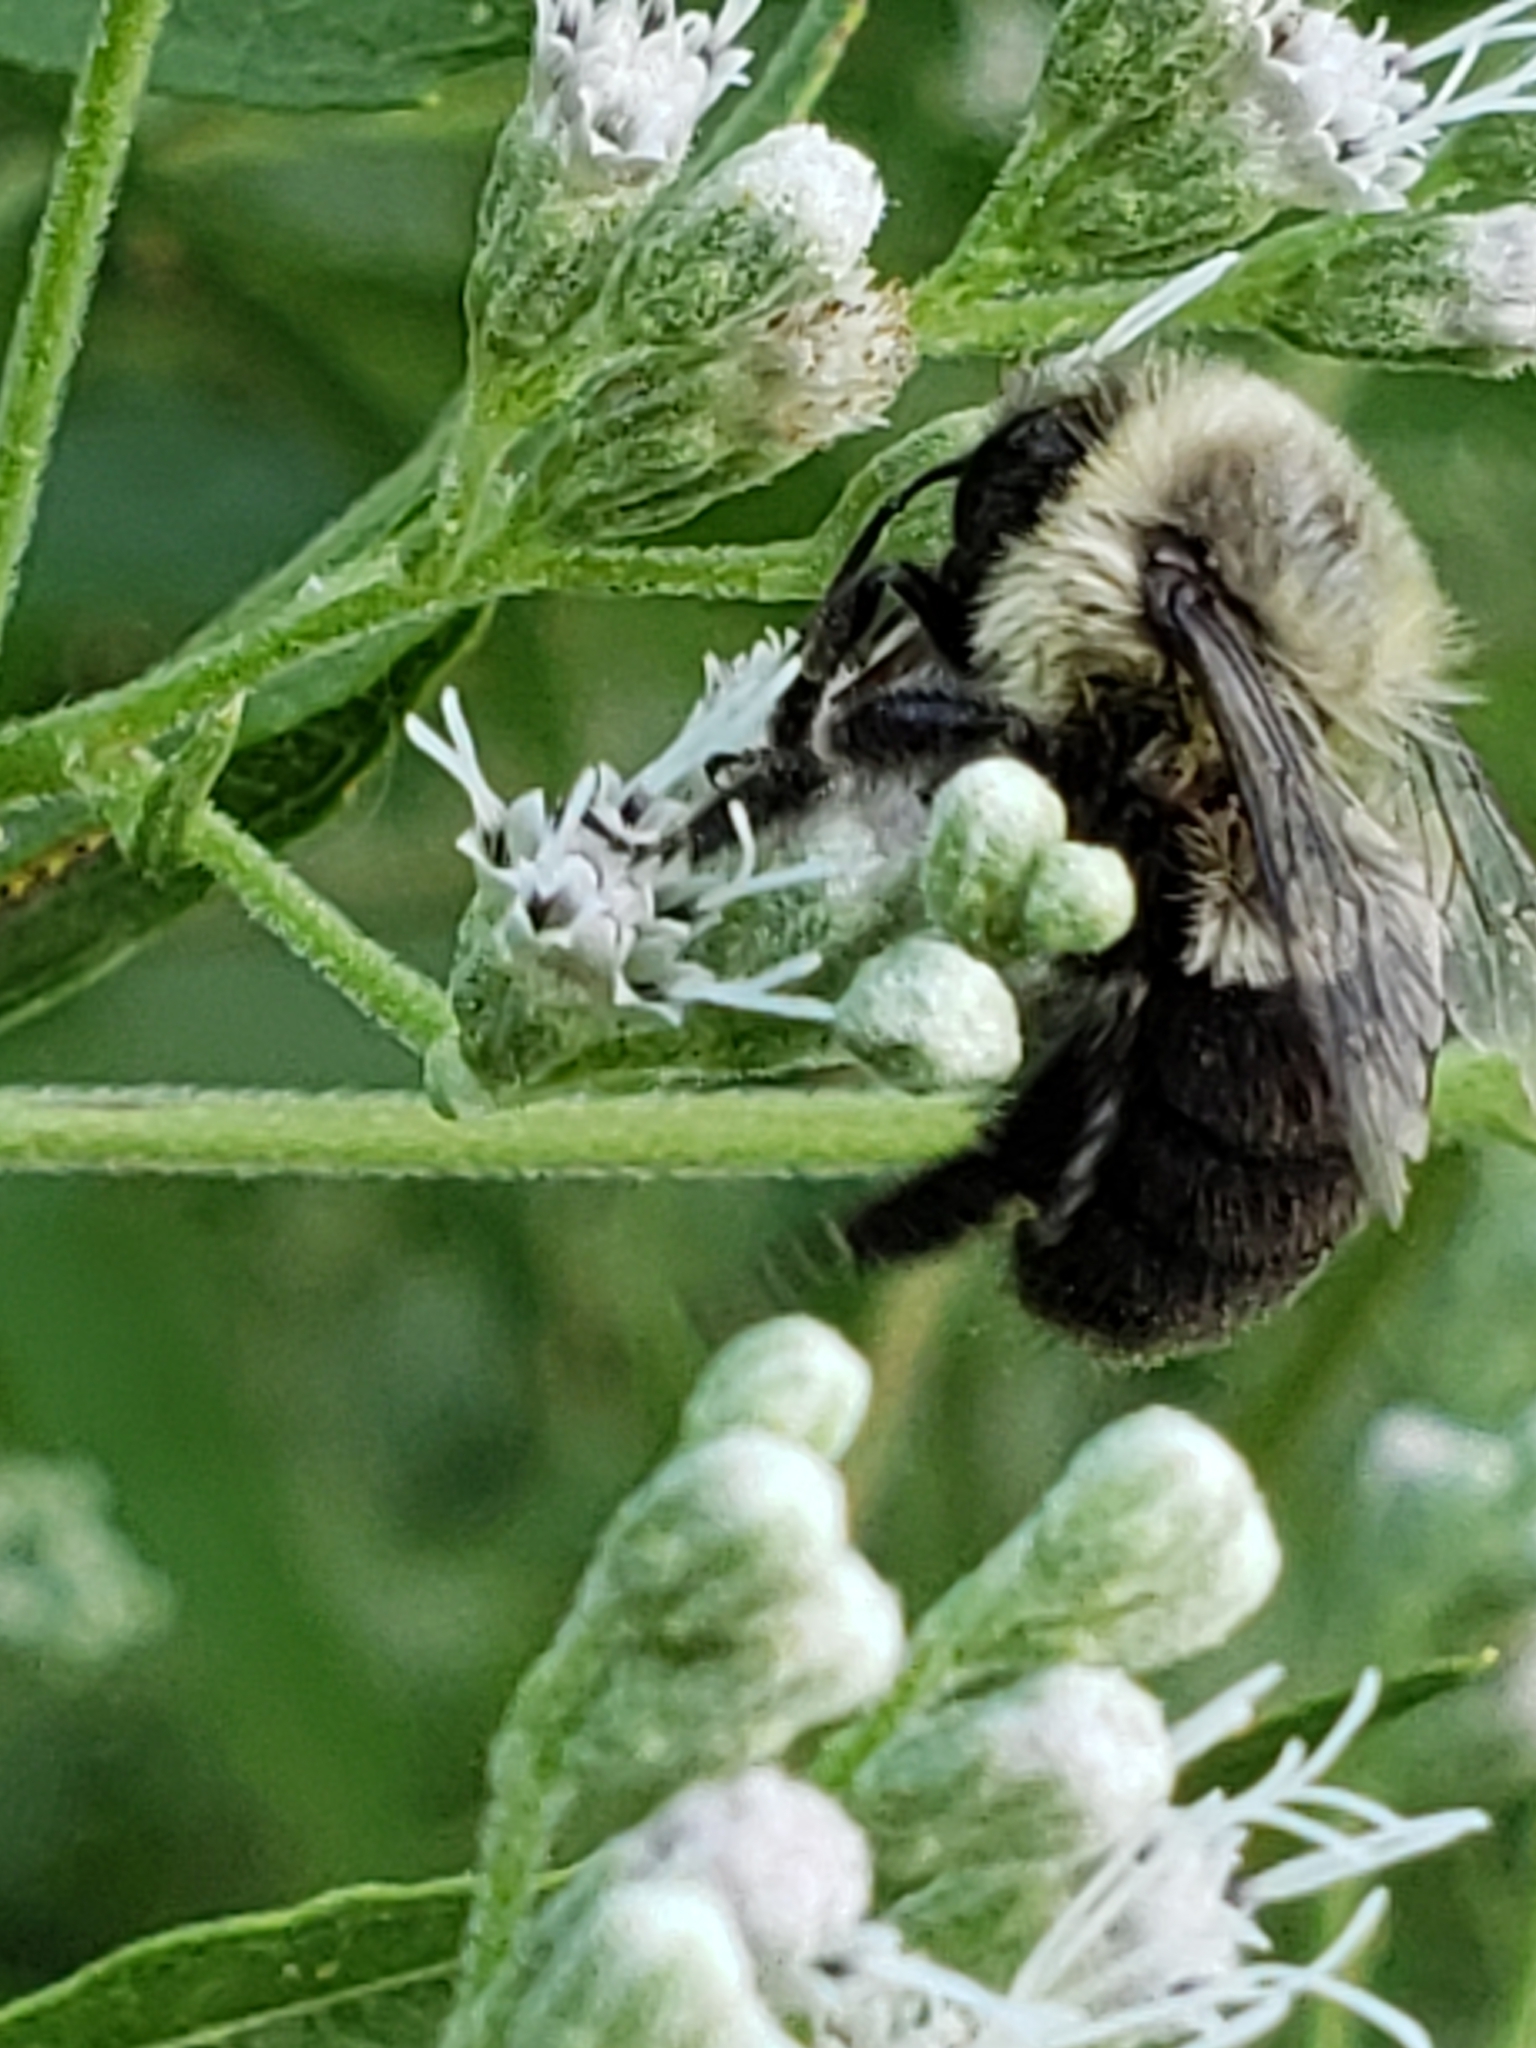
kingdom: Animalia
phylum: Arthropoda
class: Insecta
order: Hymenoptera
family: Apidae
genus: Bombus
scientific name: Bombus impatiens
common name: Common eastern bumble bee
